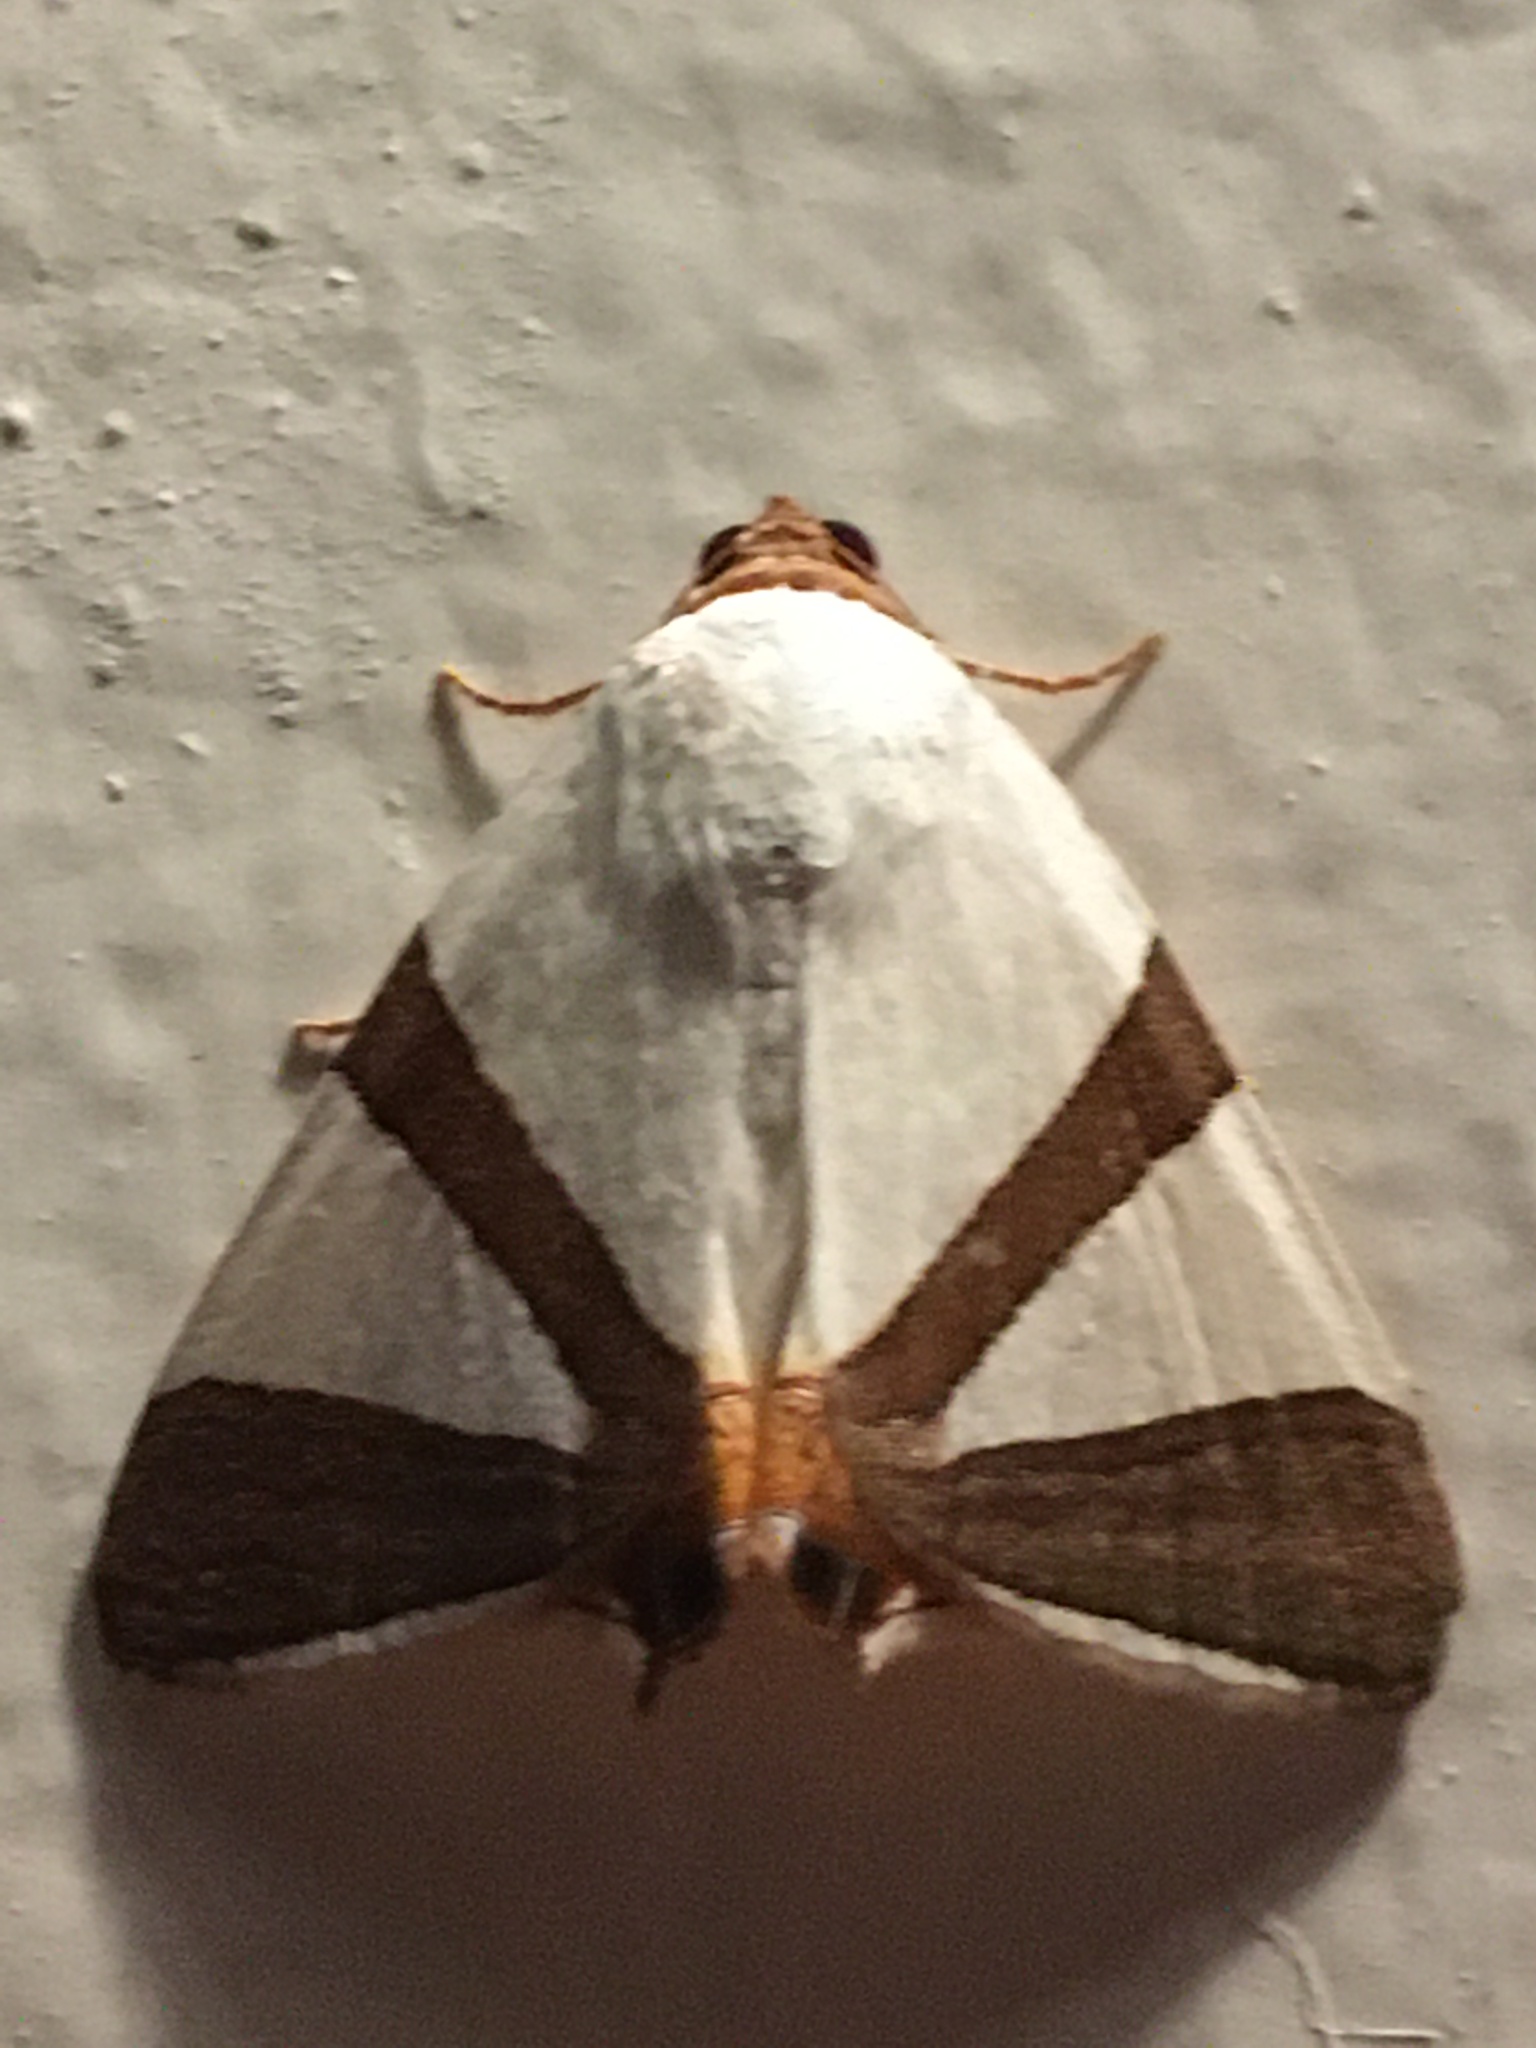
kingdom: Animalia
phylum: Arthropoda
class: Insecta
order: Lepidoptera
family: Erebidae
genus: Eulepidotis
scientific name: Eulepidotis rectimargo
